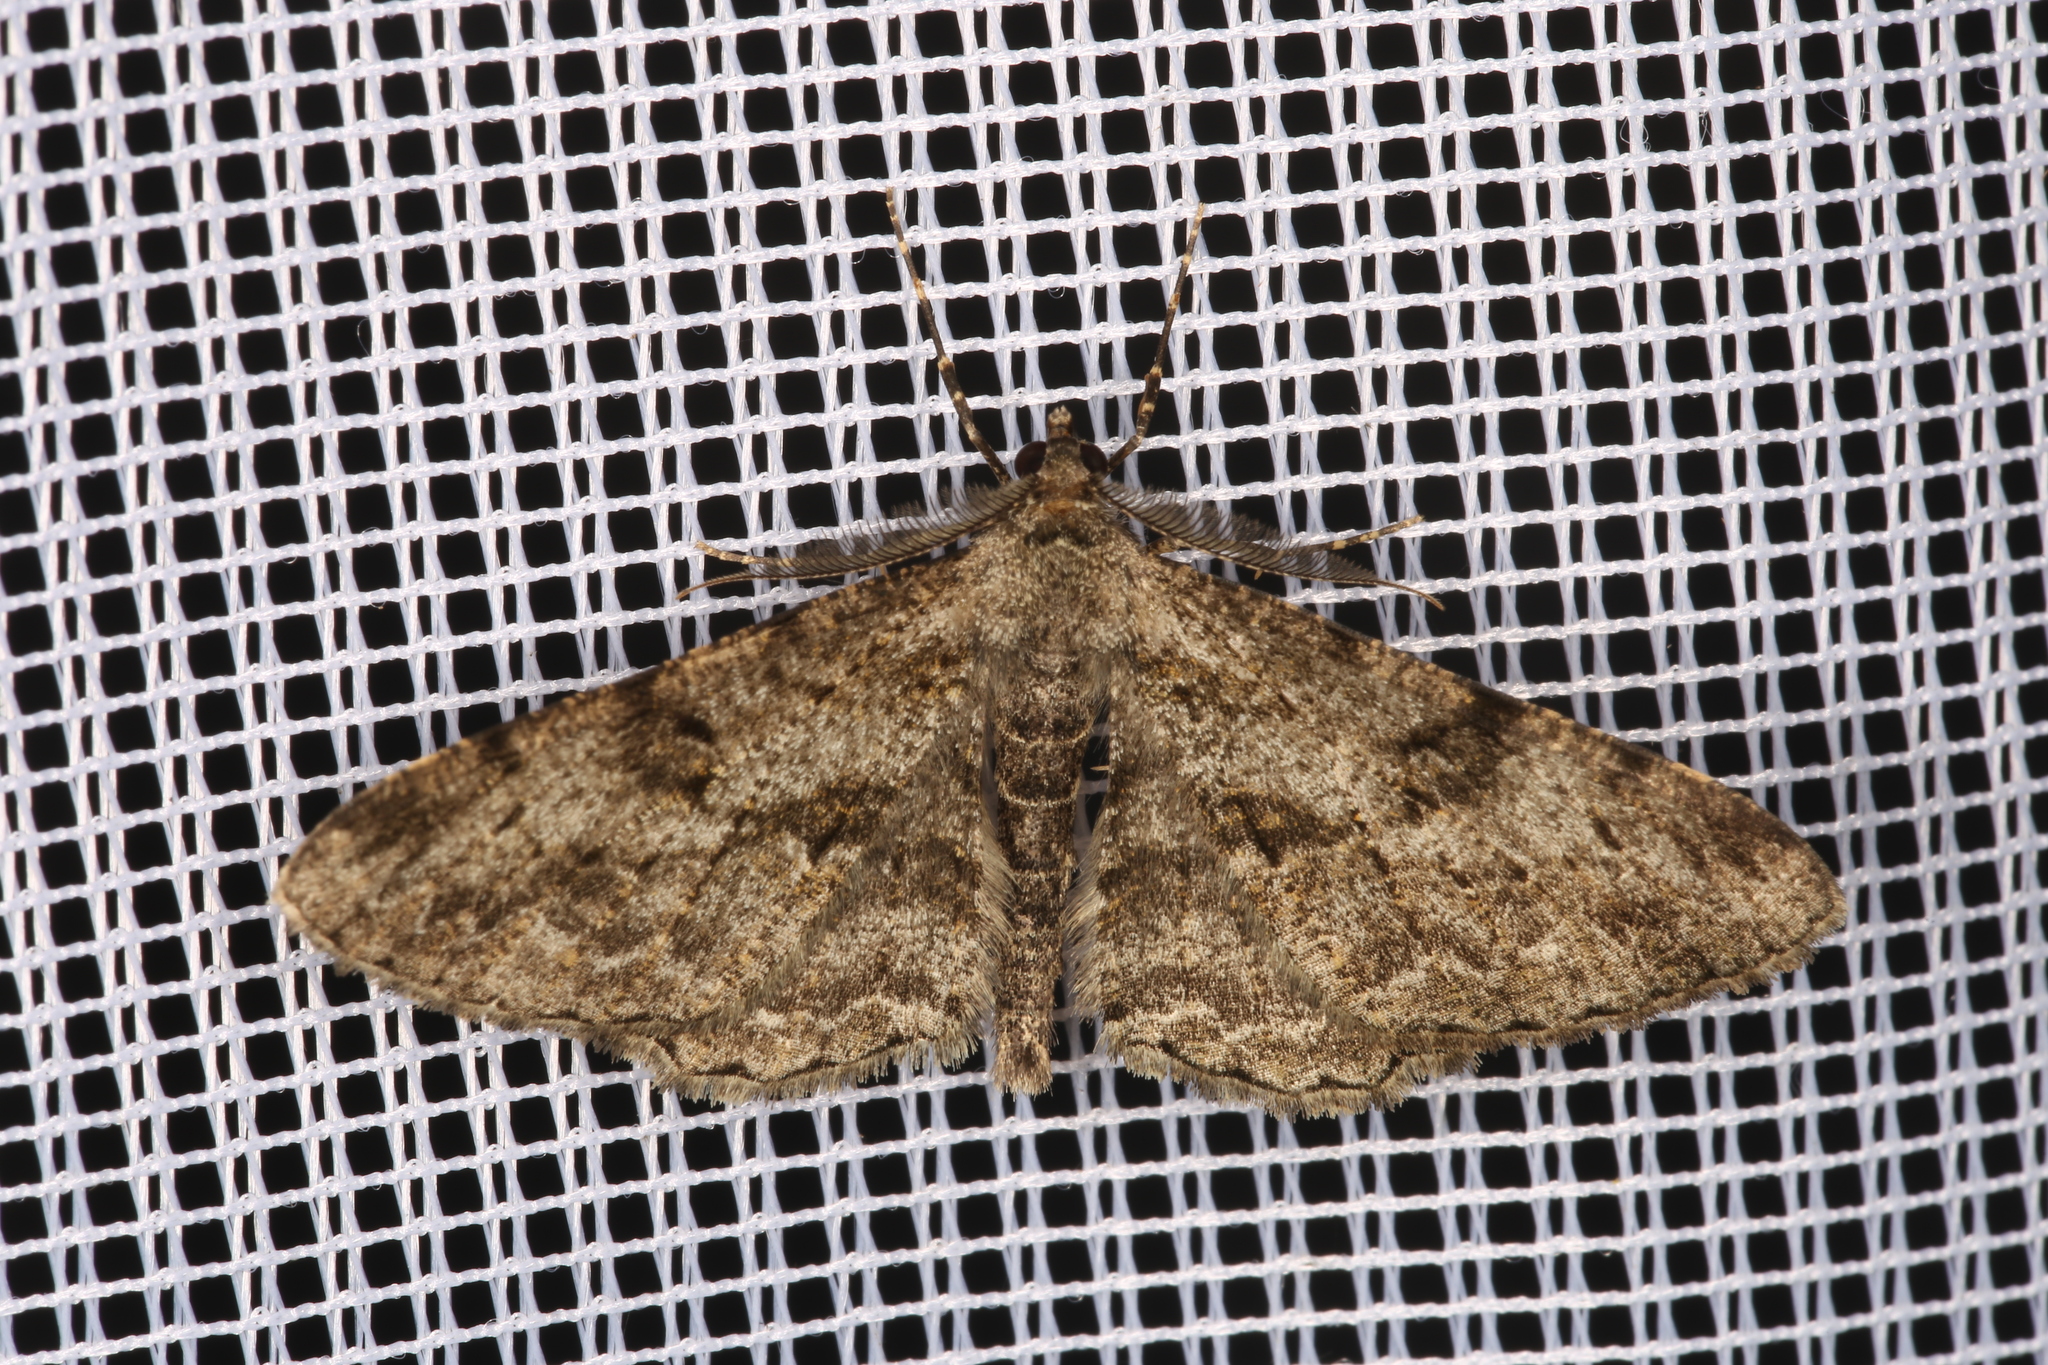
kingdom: Animalia
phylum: Arthropoda
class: Insecta
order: Lepidoptera
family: Geometridae
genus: Peribatodes
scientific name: Peribatodes rhomboidaria
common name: Willow beauty
